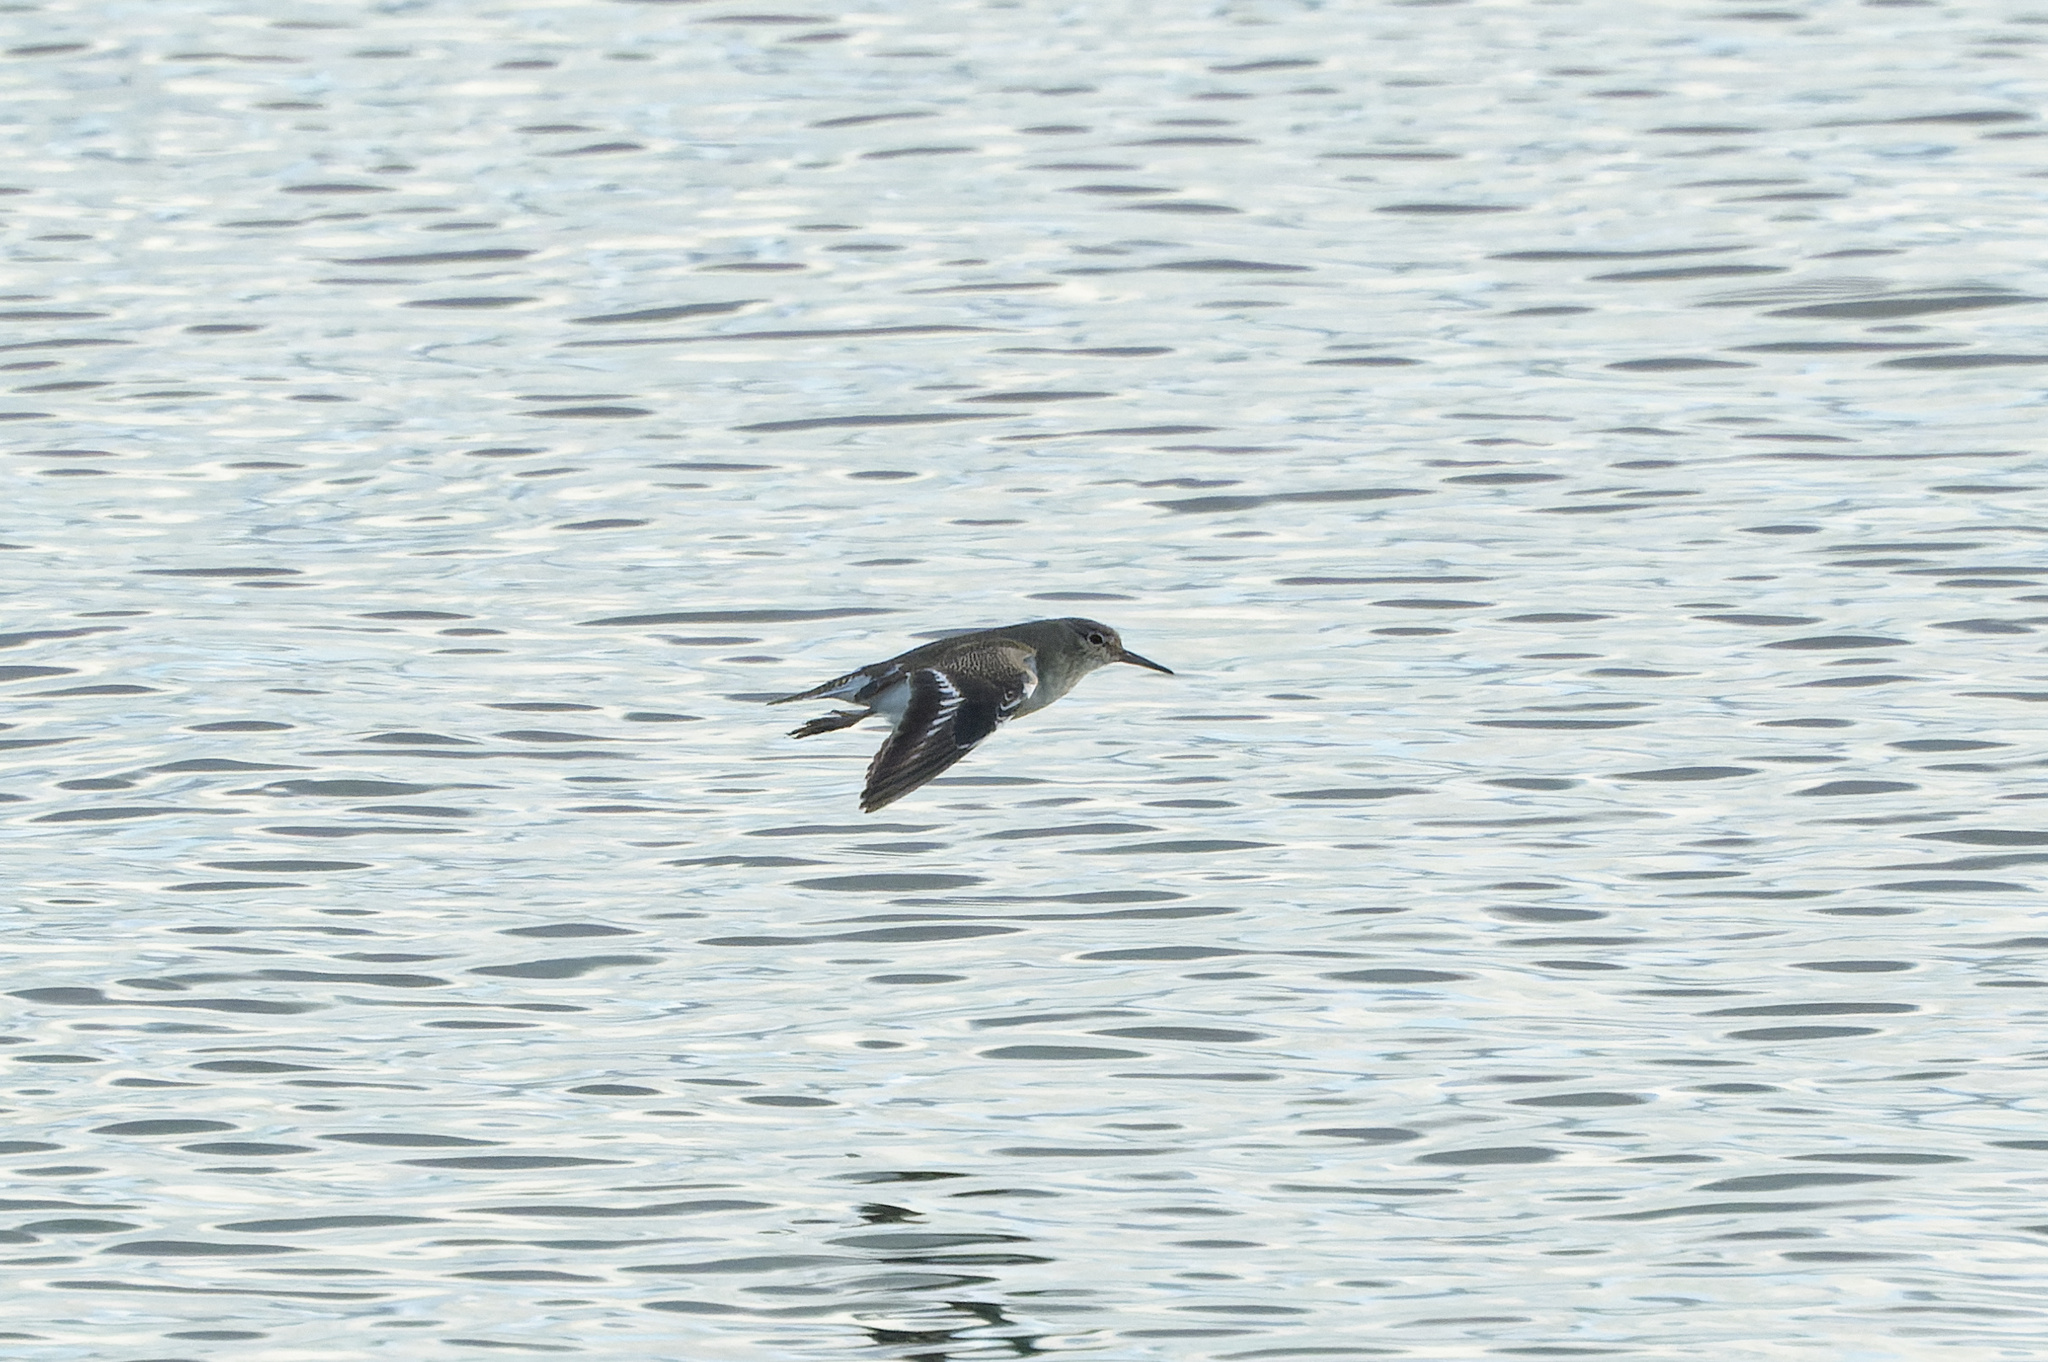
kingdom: Animalia
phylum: Chordata
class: Aves
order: Charadriiformes
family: Scolopacidae
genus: Actitis
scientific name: Actitis hypoleucos
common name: Common sandpiper
